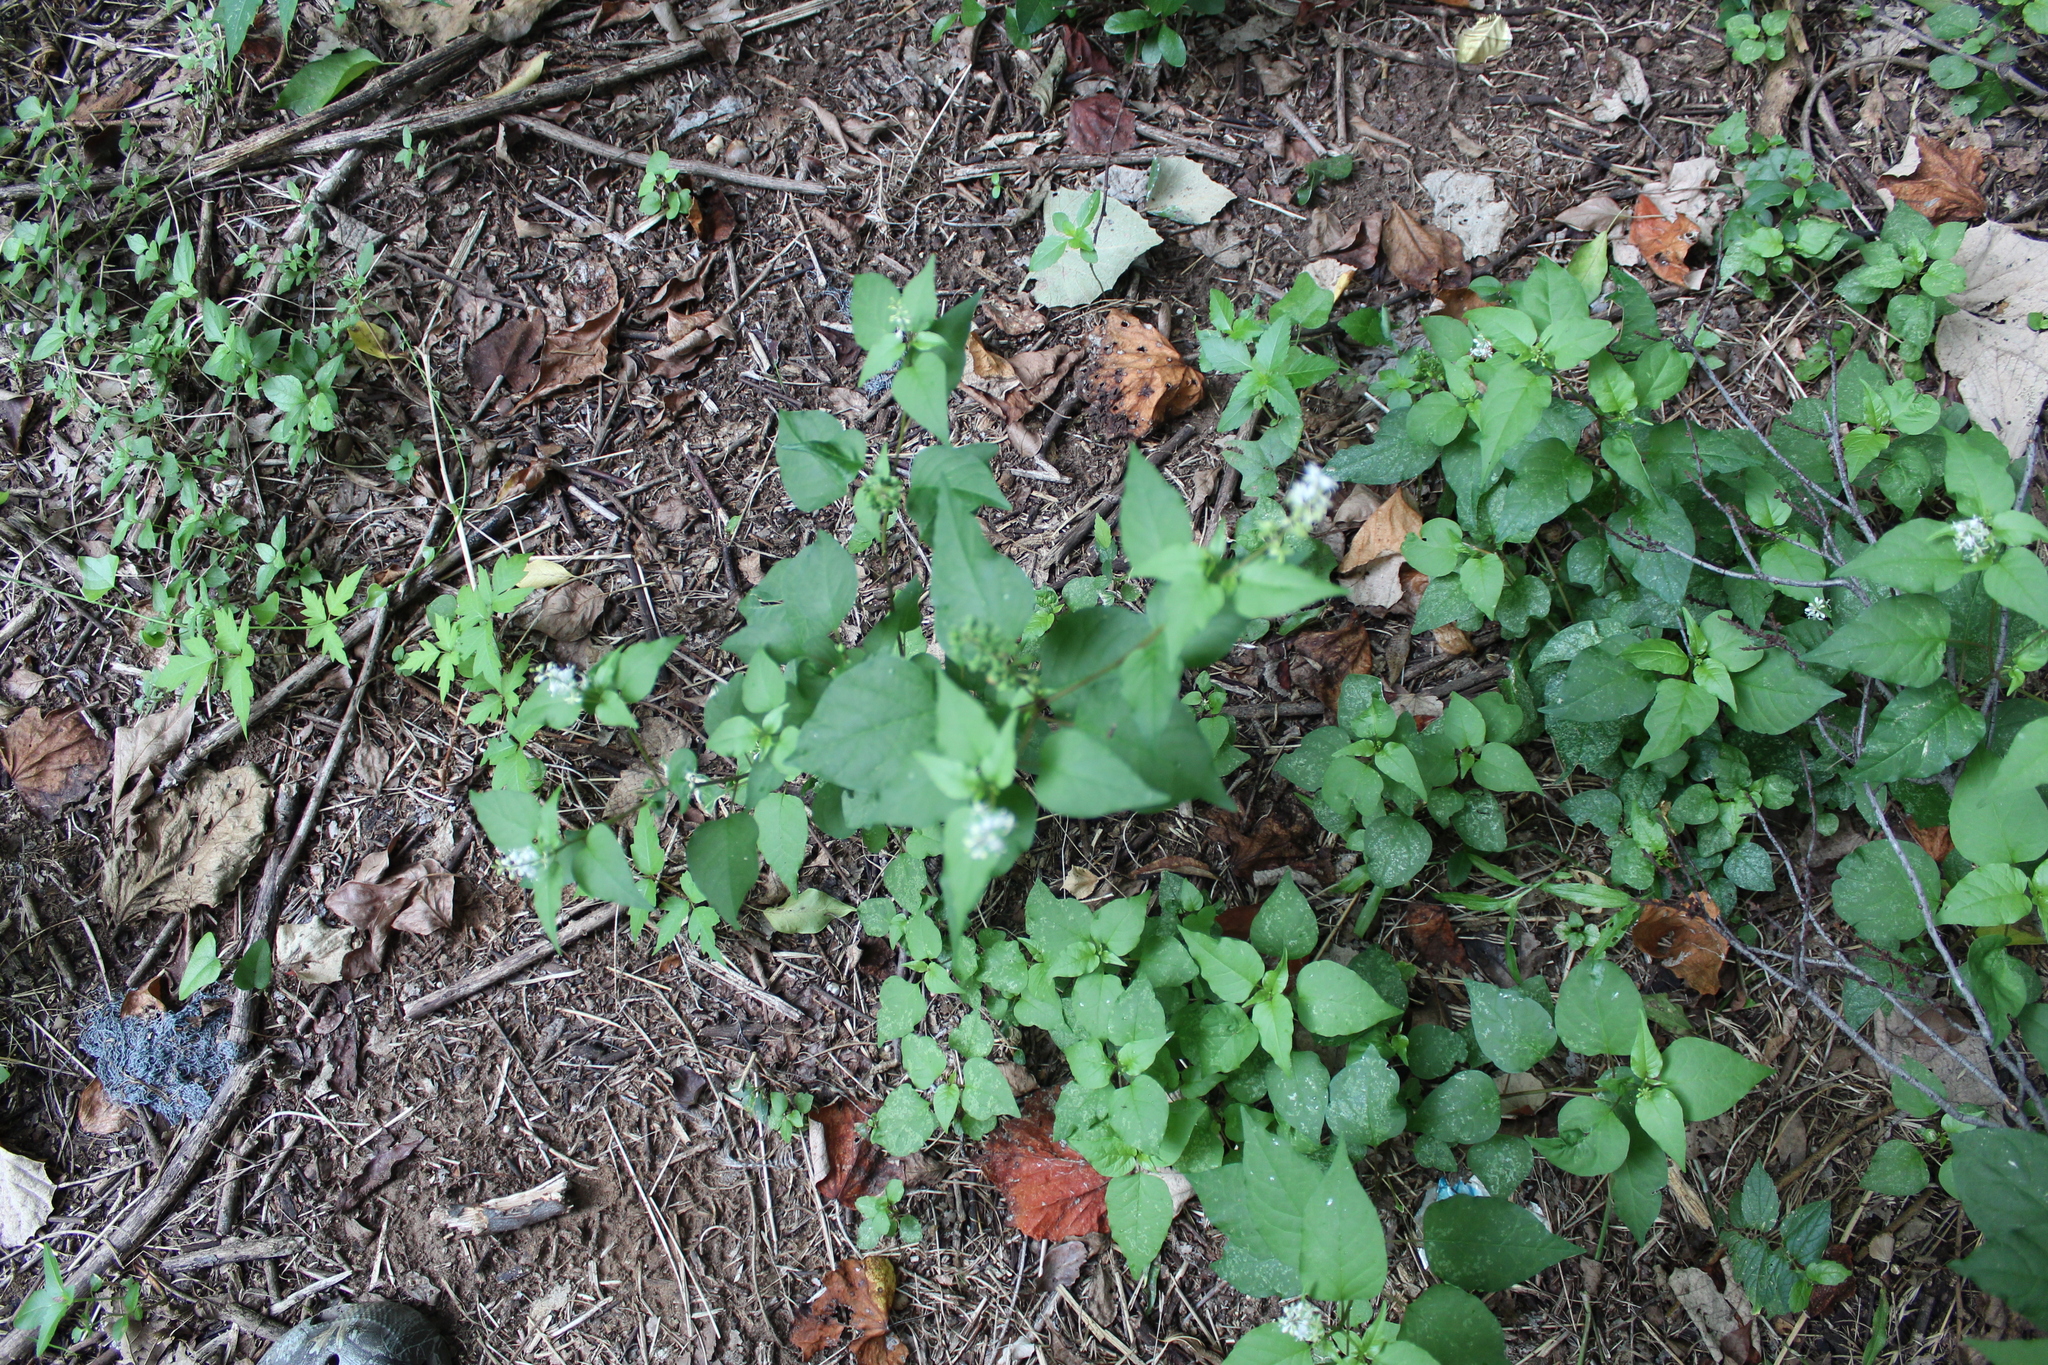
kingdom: Plantae
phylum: Tracheophyta
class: Magnoliopsida
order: Caryophyllales
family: Phytolaccaceae
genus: Rivina
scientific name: Rivina humilis
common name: Rougeplant
